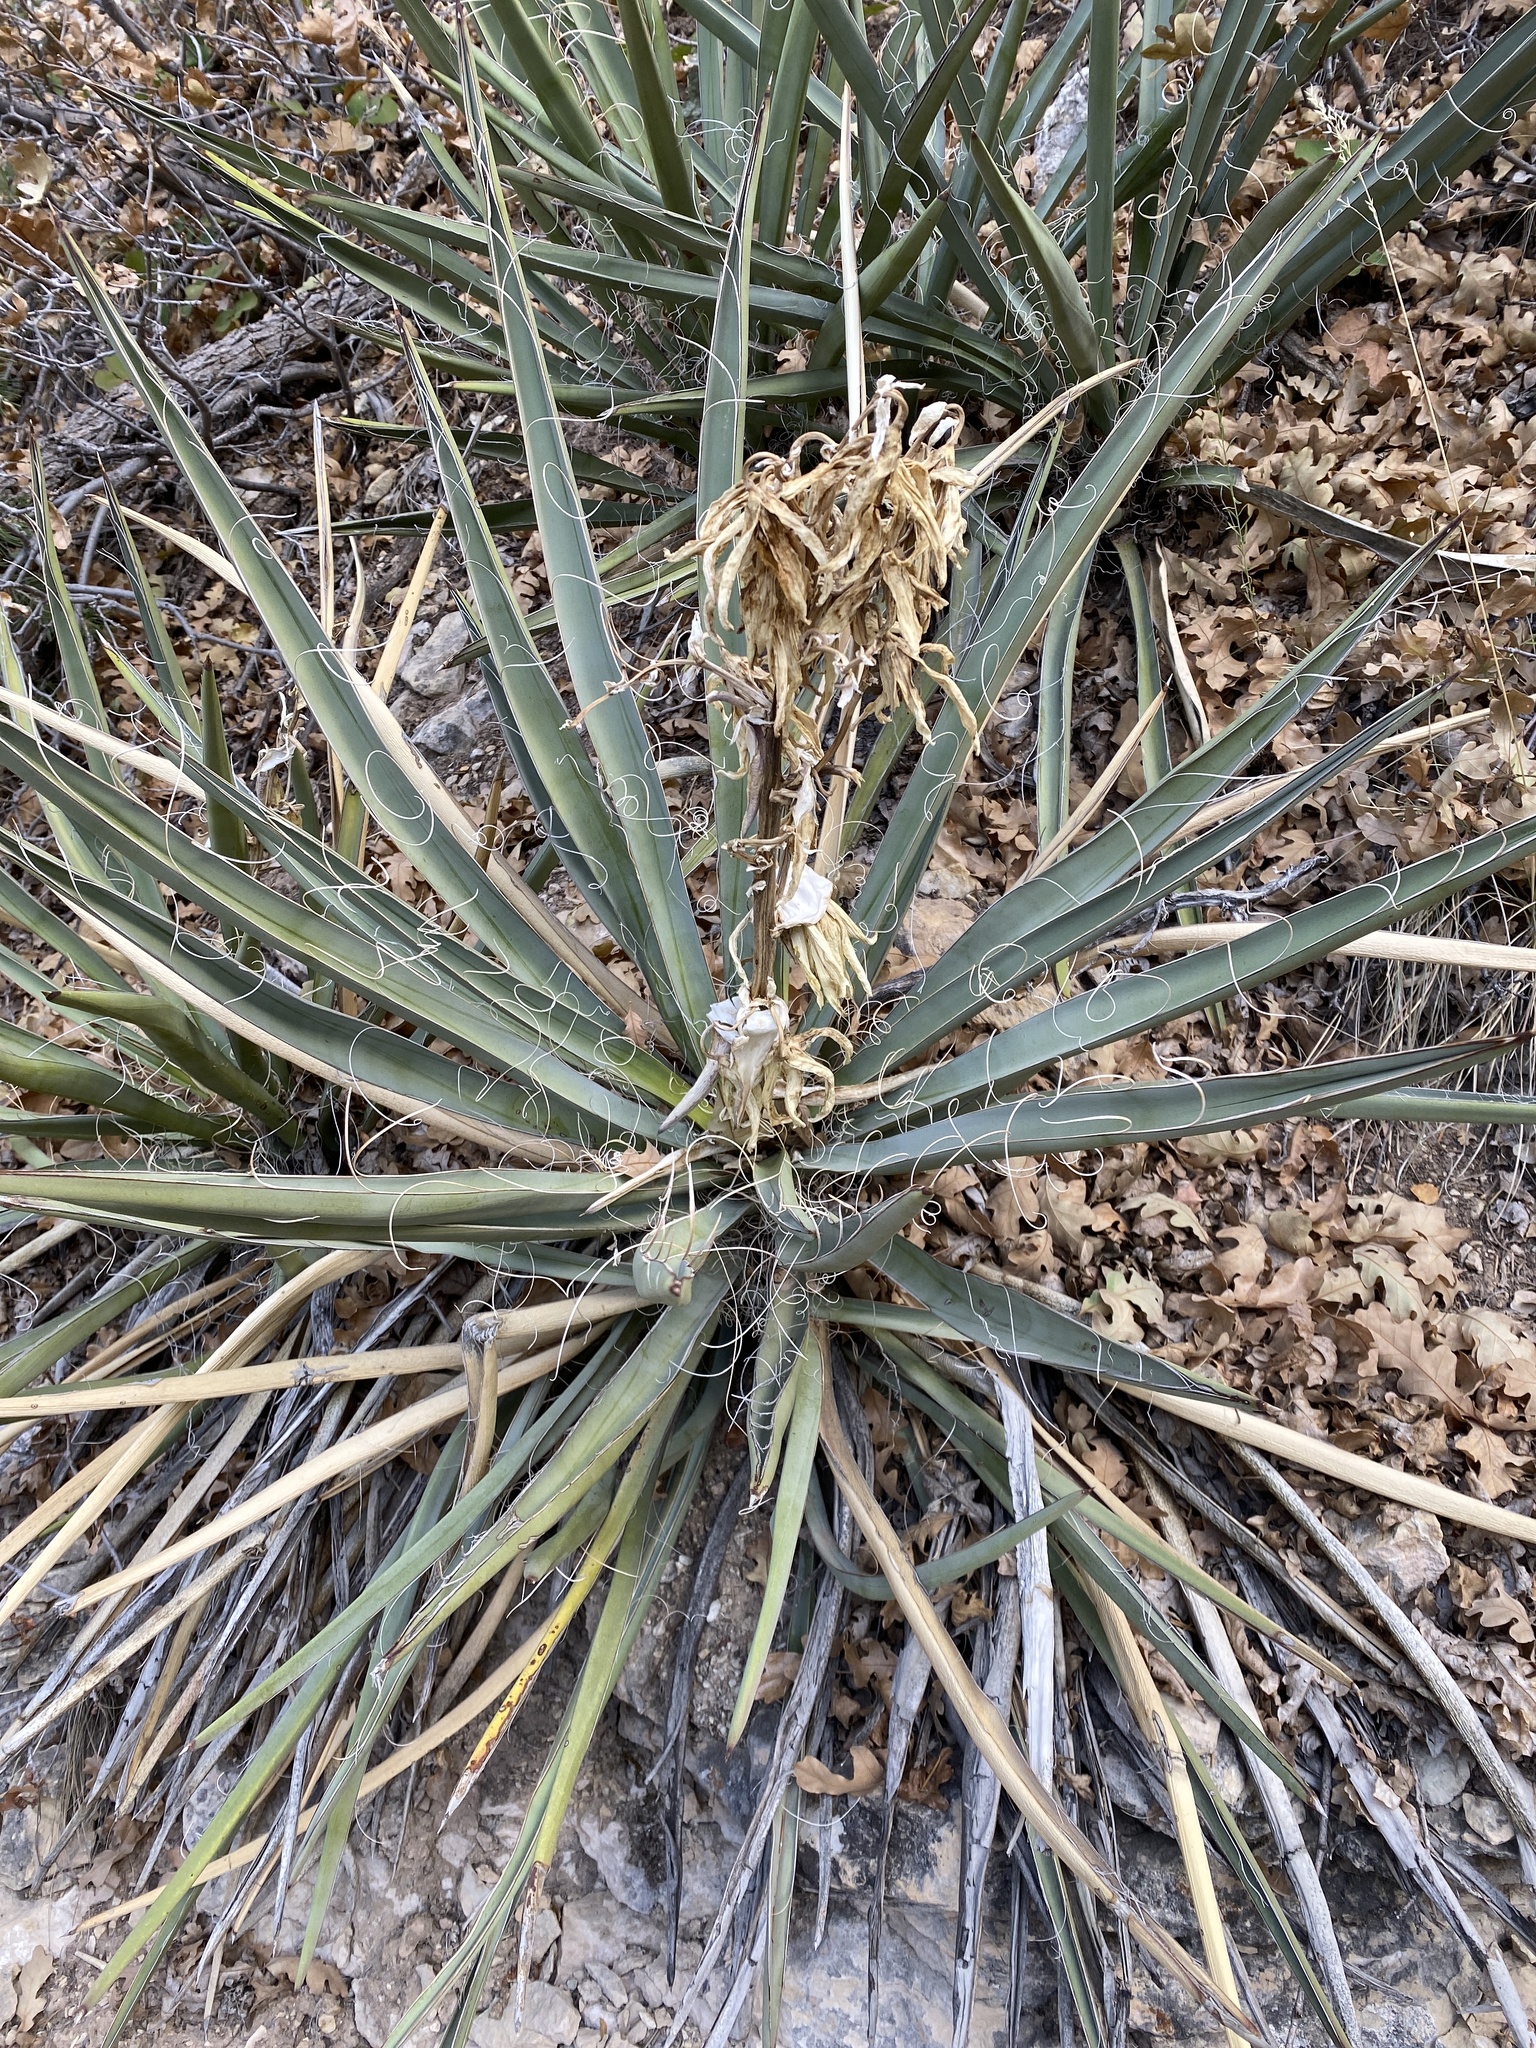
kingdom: Plantae
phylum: Tracheophyta
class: Liliopsida
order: Asparagales
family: Asparagaceae
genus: Yucca
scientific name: Yucca baccata
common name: Banana yucca
